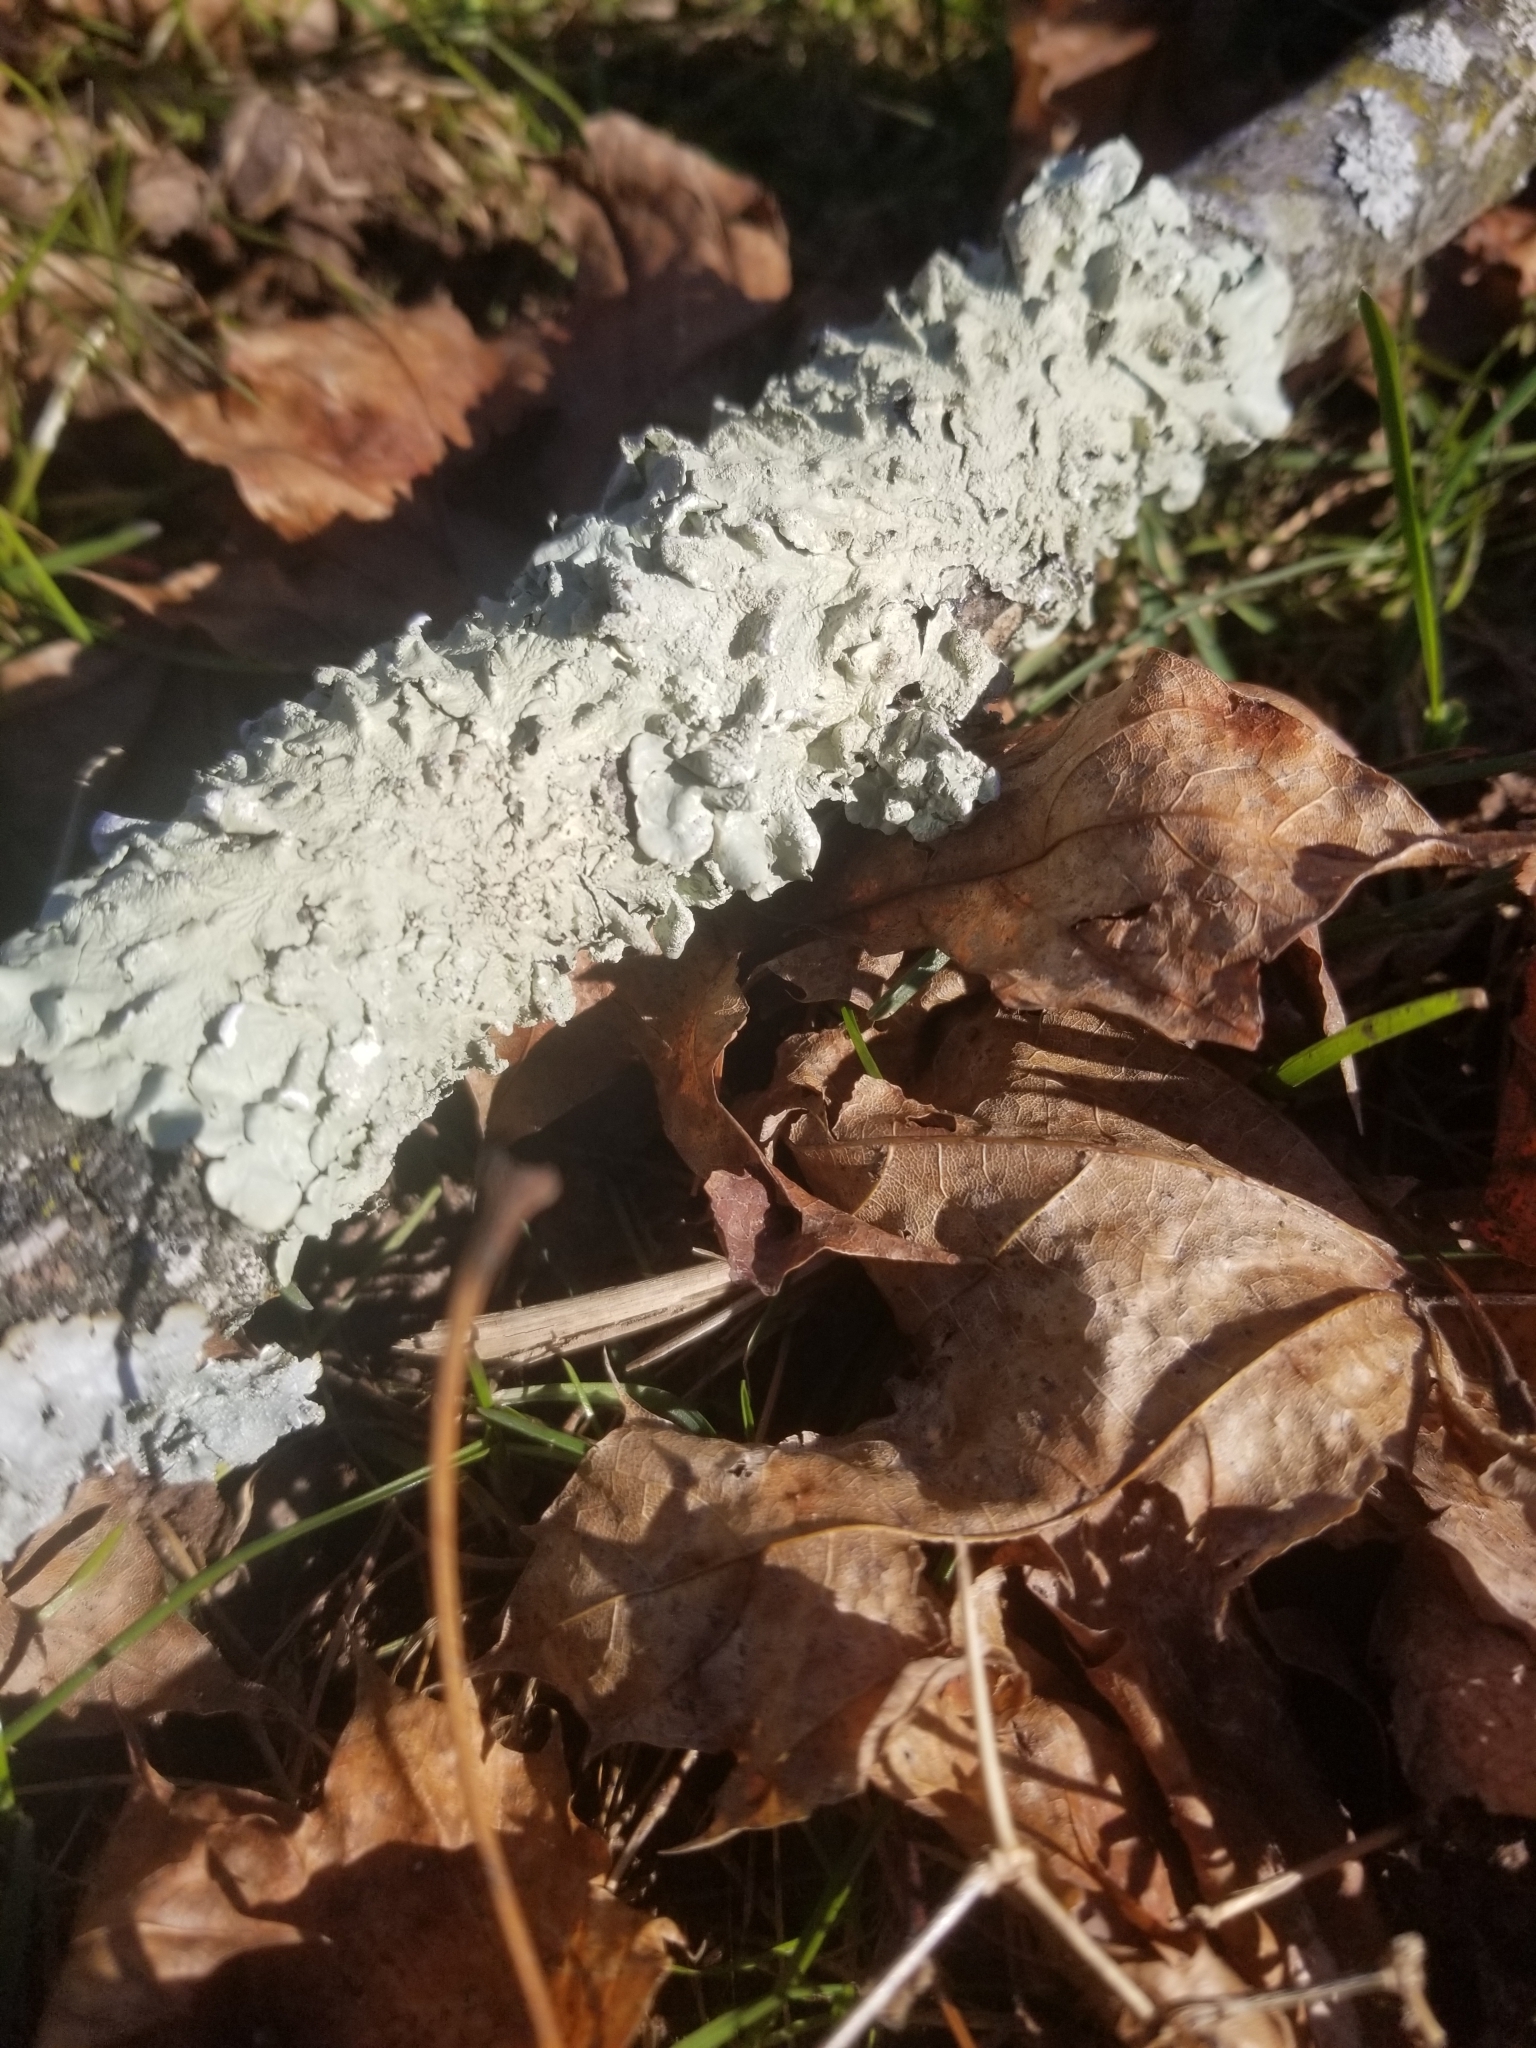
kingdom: Fungi
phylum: Ascomycota
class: Lecanoromycetes
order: Lecanorales
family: Parmeliaceae
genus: Flavoparmelia
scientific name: Flavoparmelia caperata
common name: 40-mile per hour lichen
